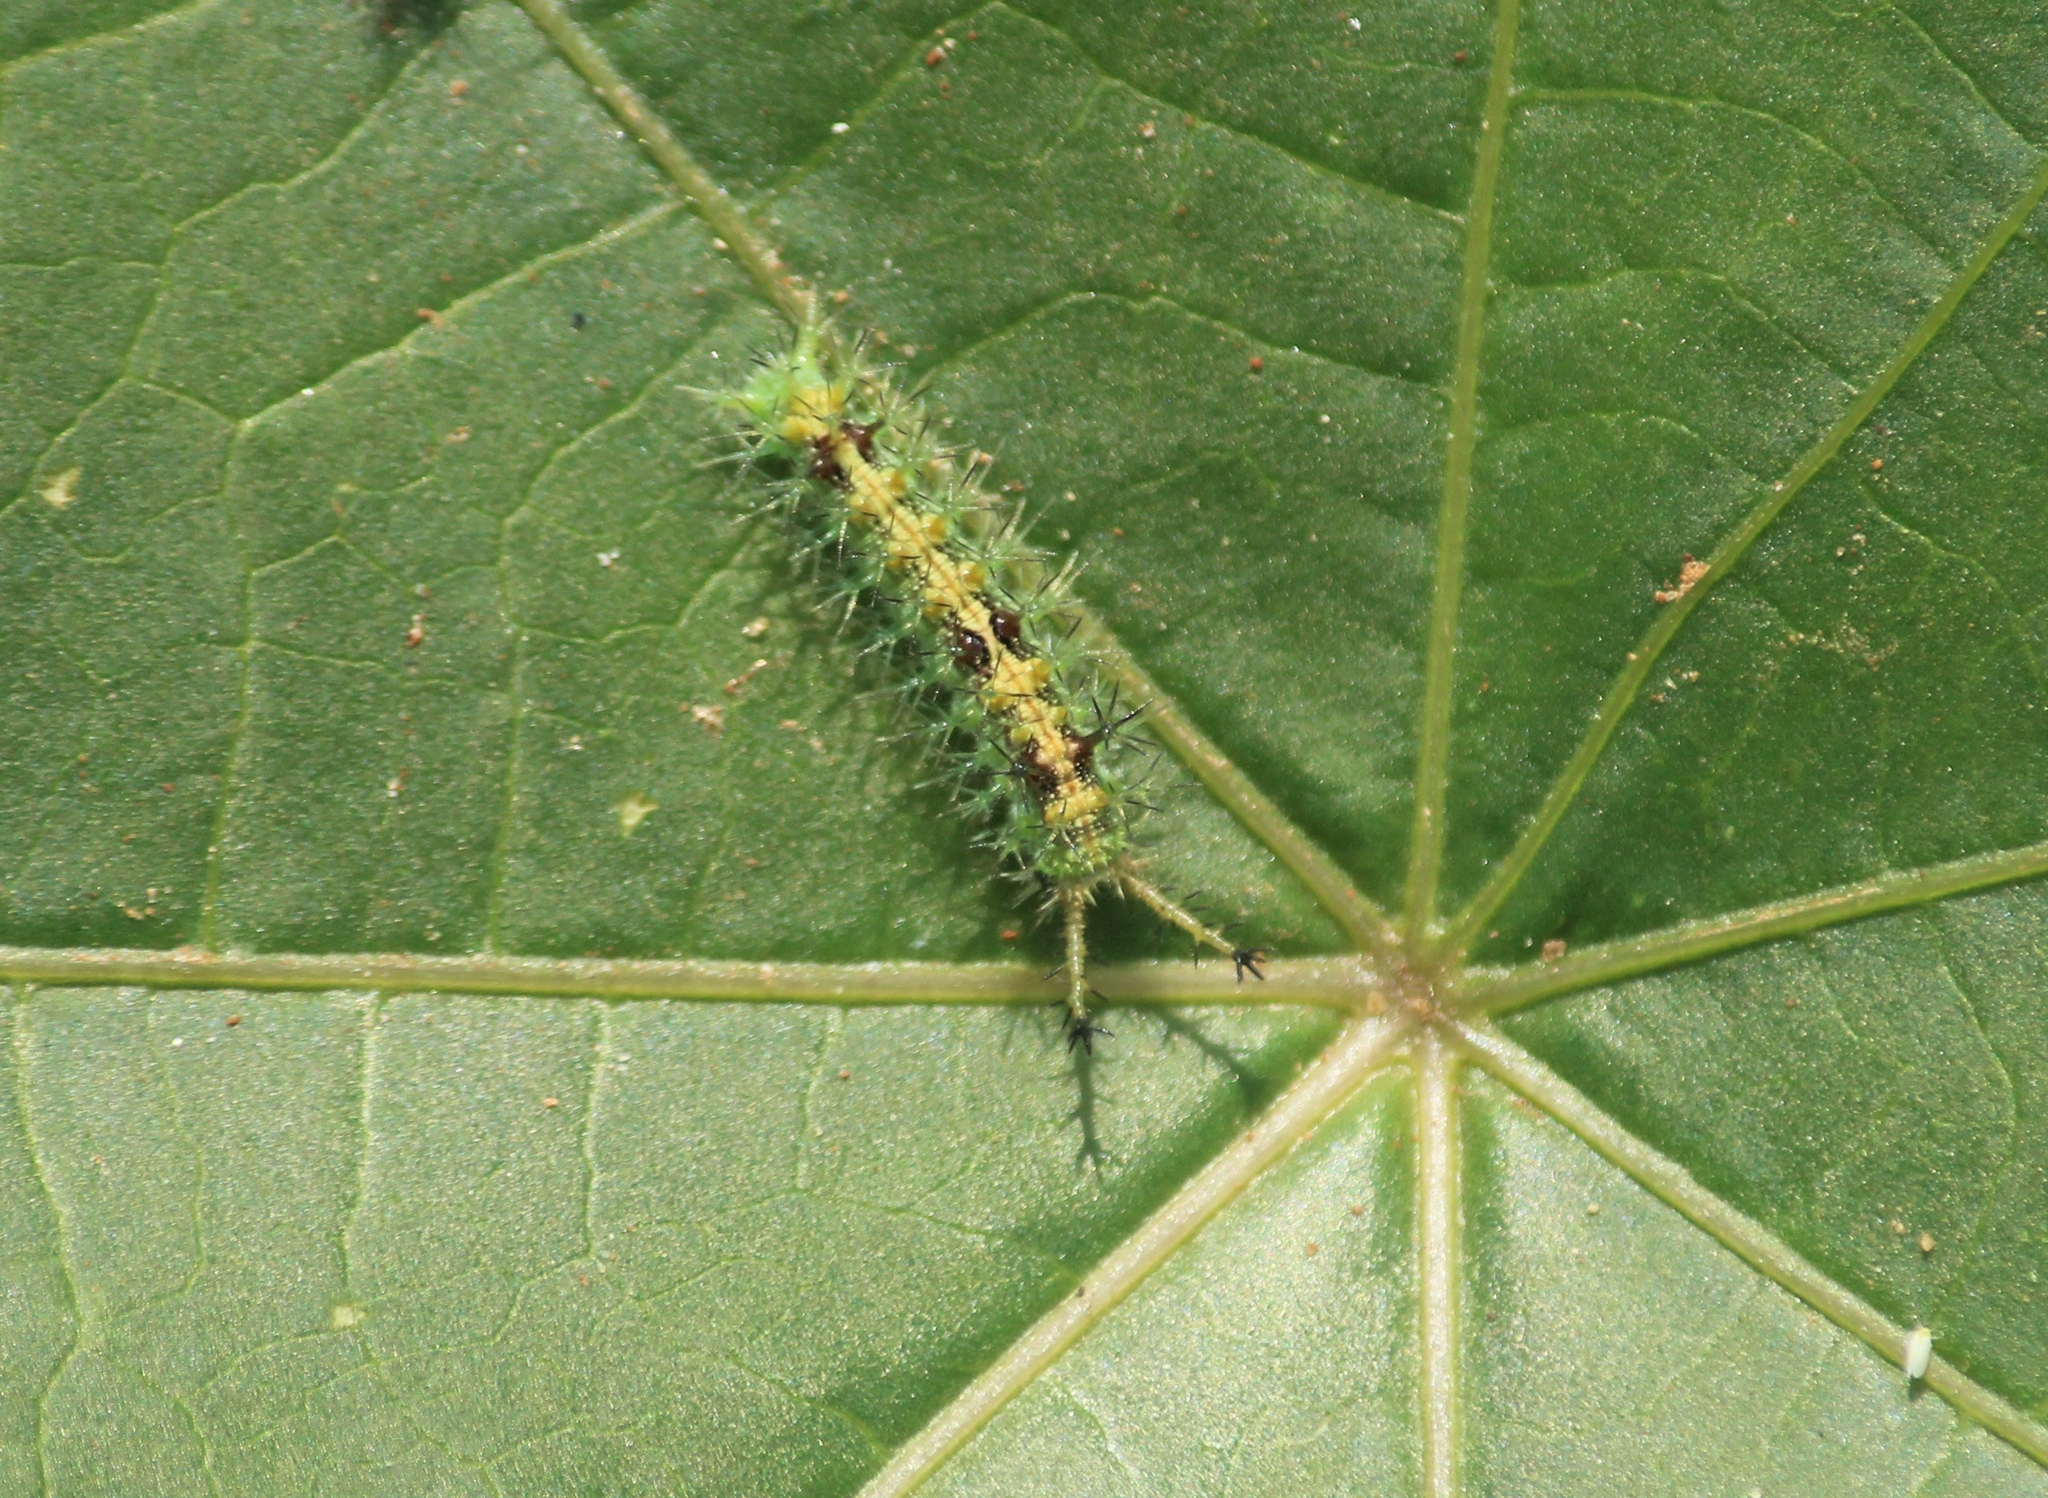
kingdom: Animalia
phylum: Arthropoda
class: Insecta
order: Lepidoptera
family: Nymphalidae
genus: Ariadne
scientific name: Ariadne merione
